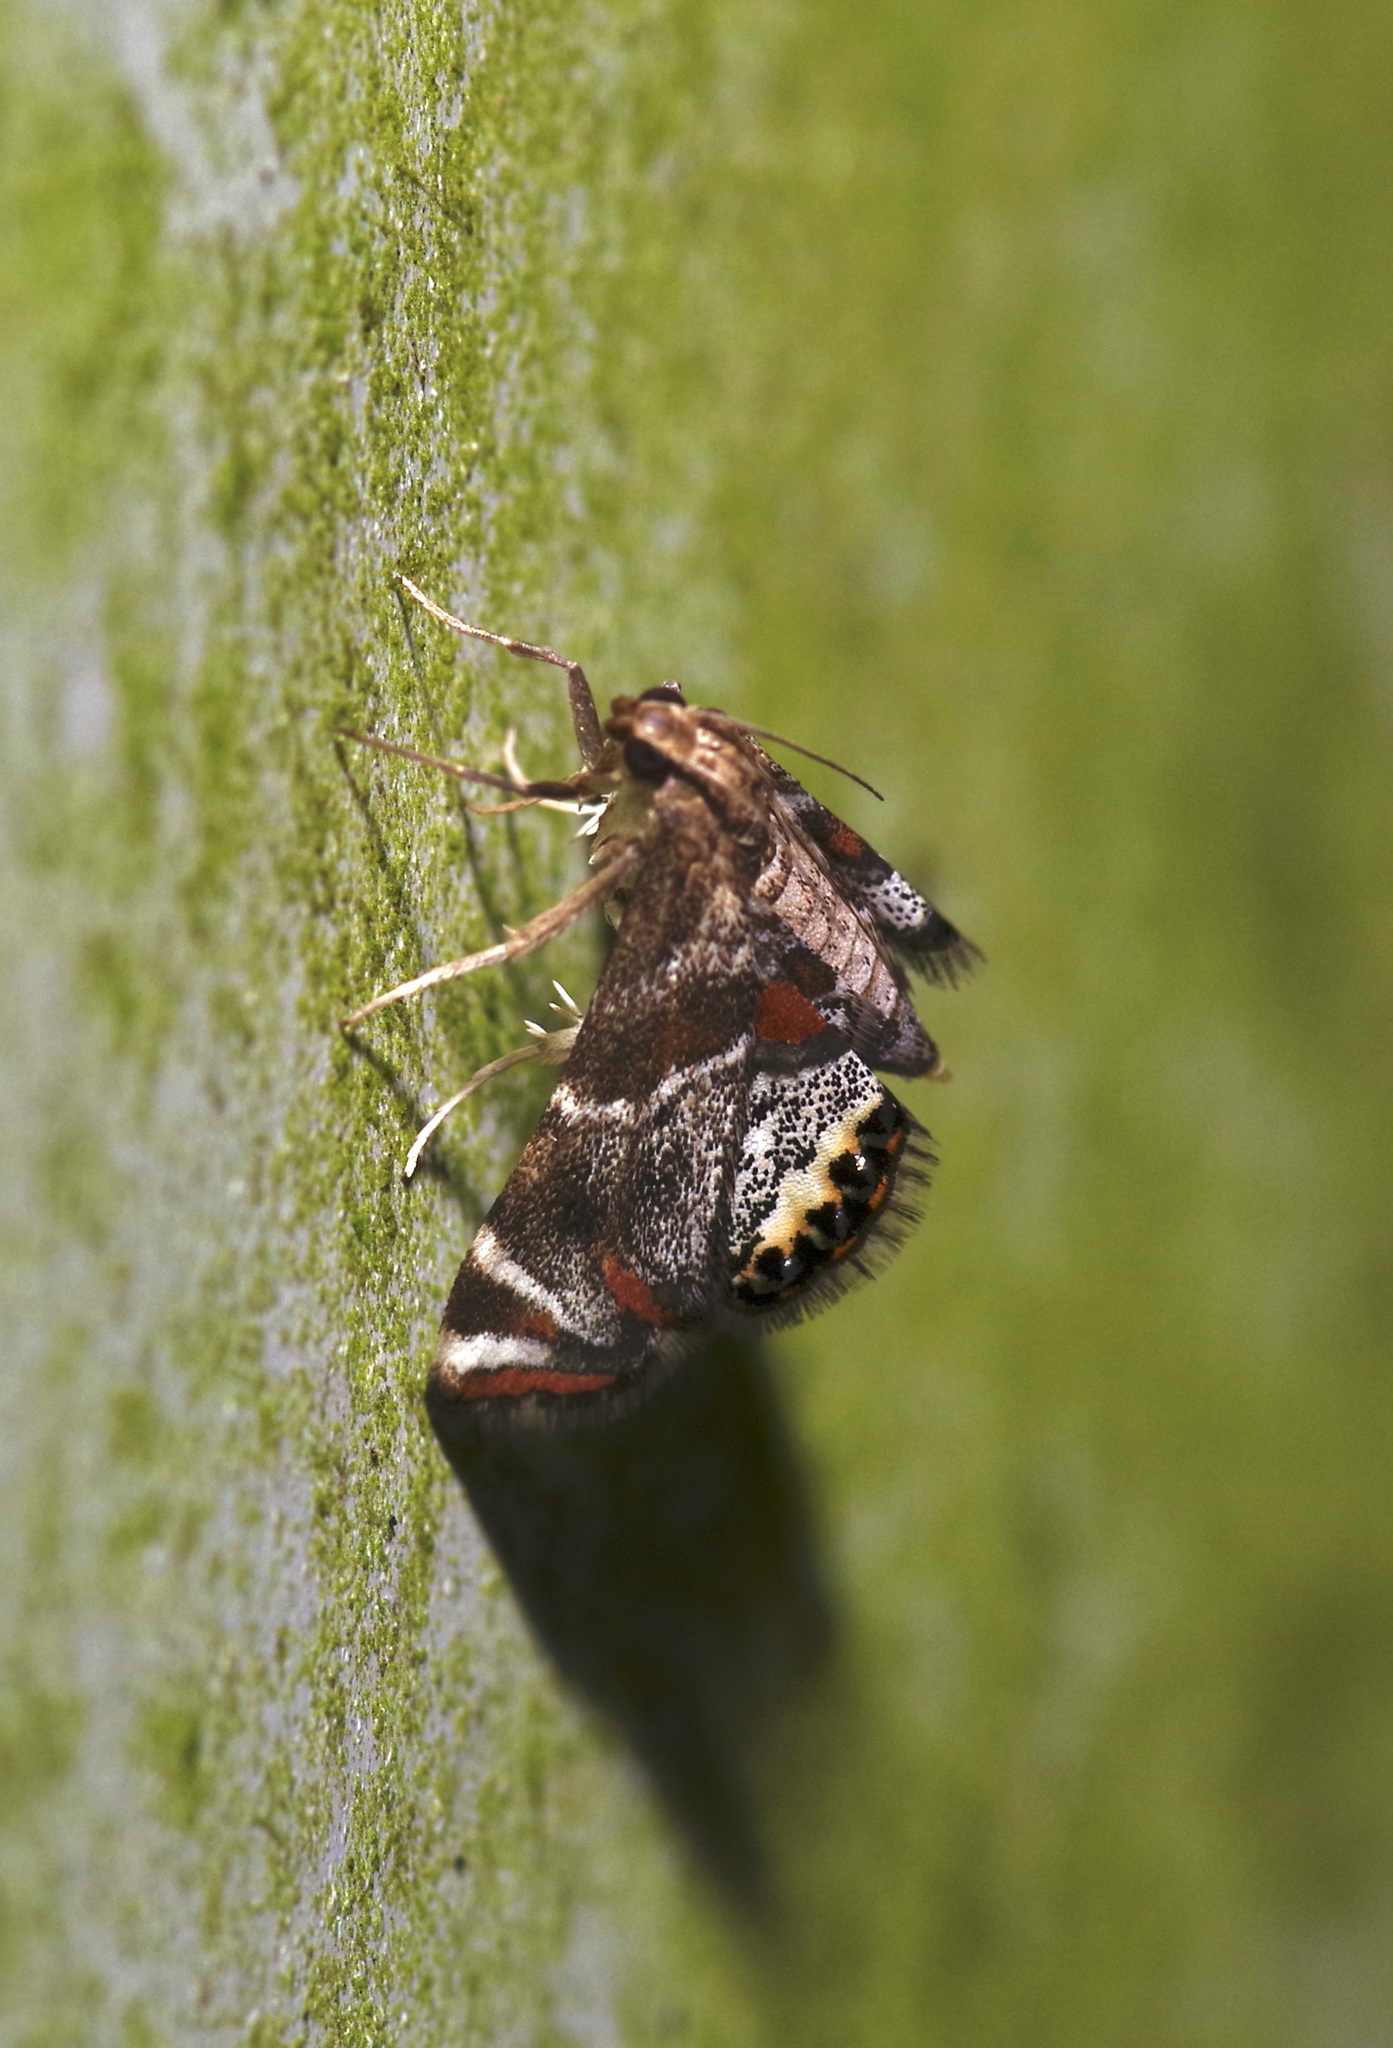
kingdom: Animalia
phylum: Arthropoda
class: Insecta
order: Lepidoptera
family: Crambidae
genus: Petrophila
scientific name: Petrophila jaliscalis
